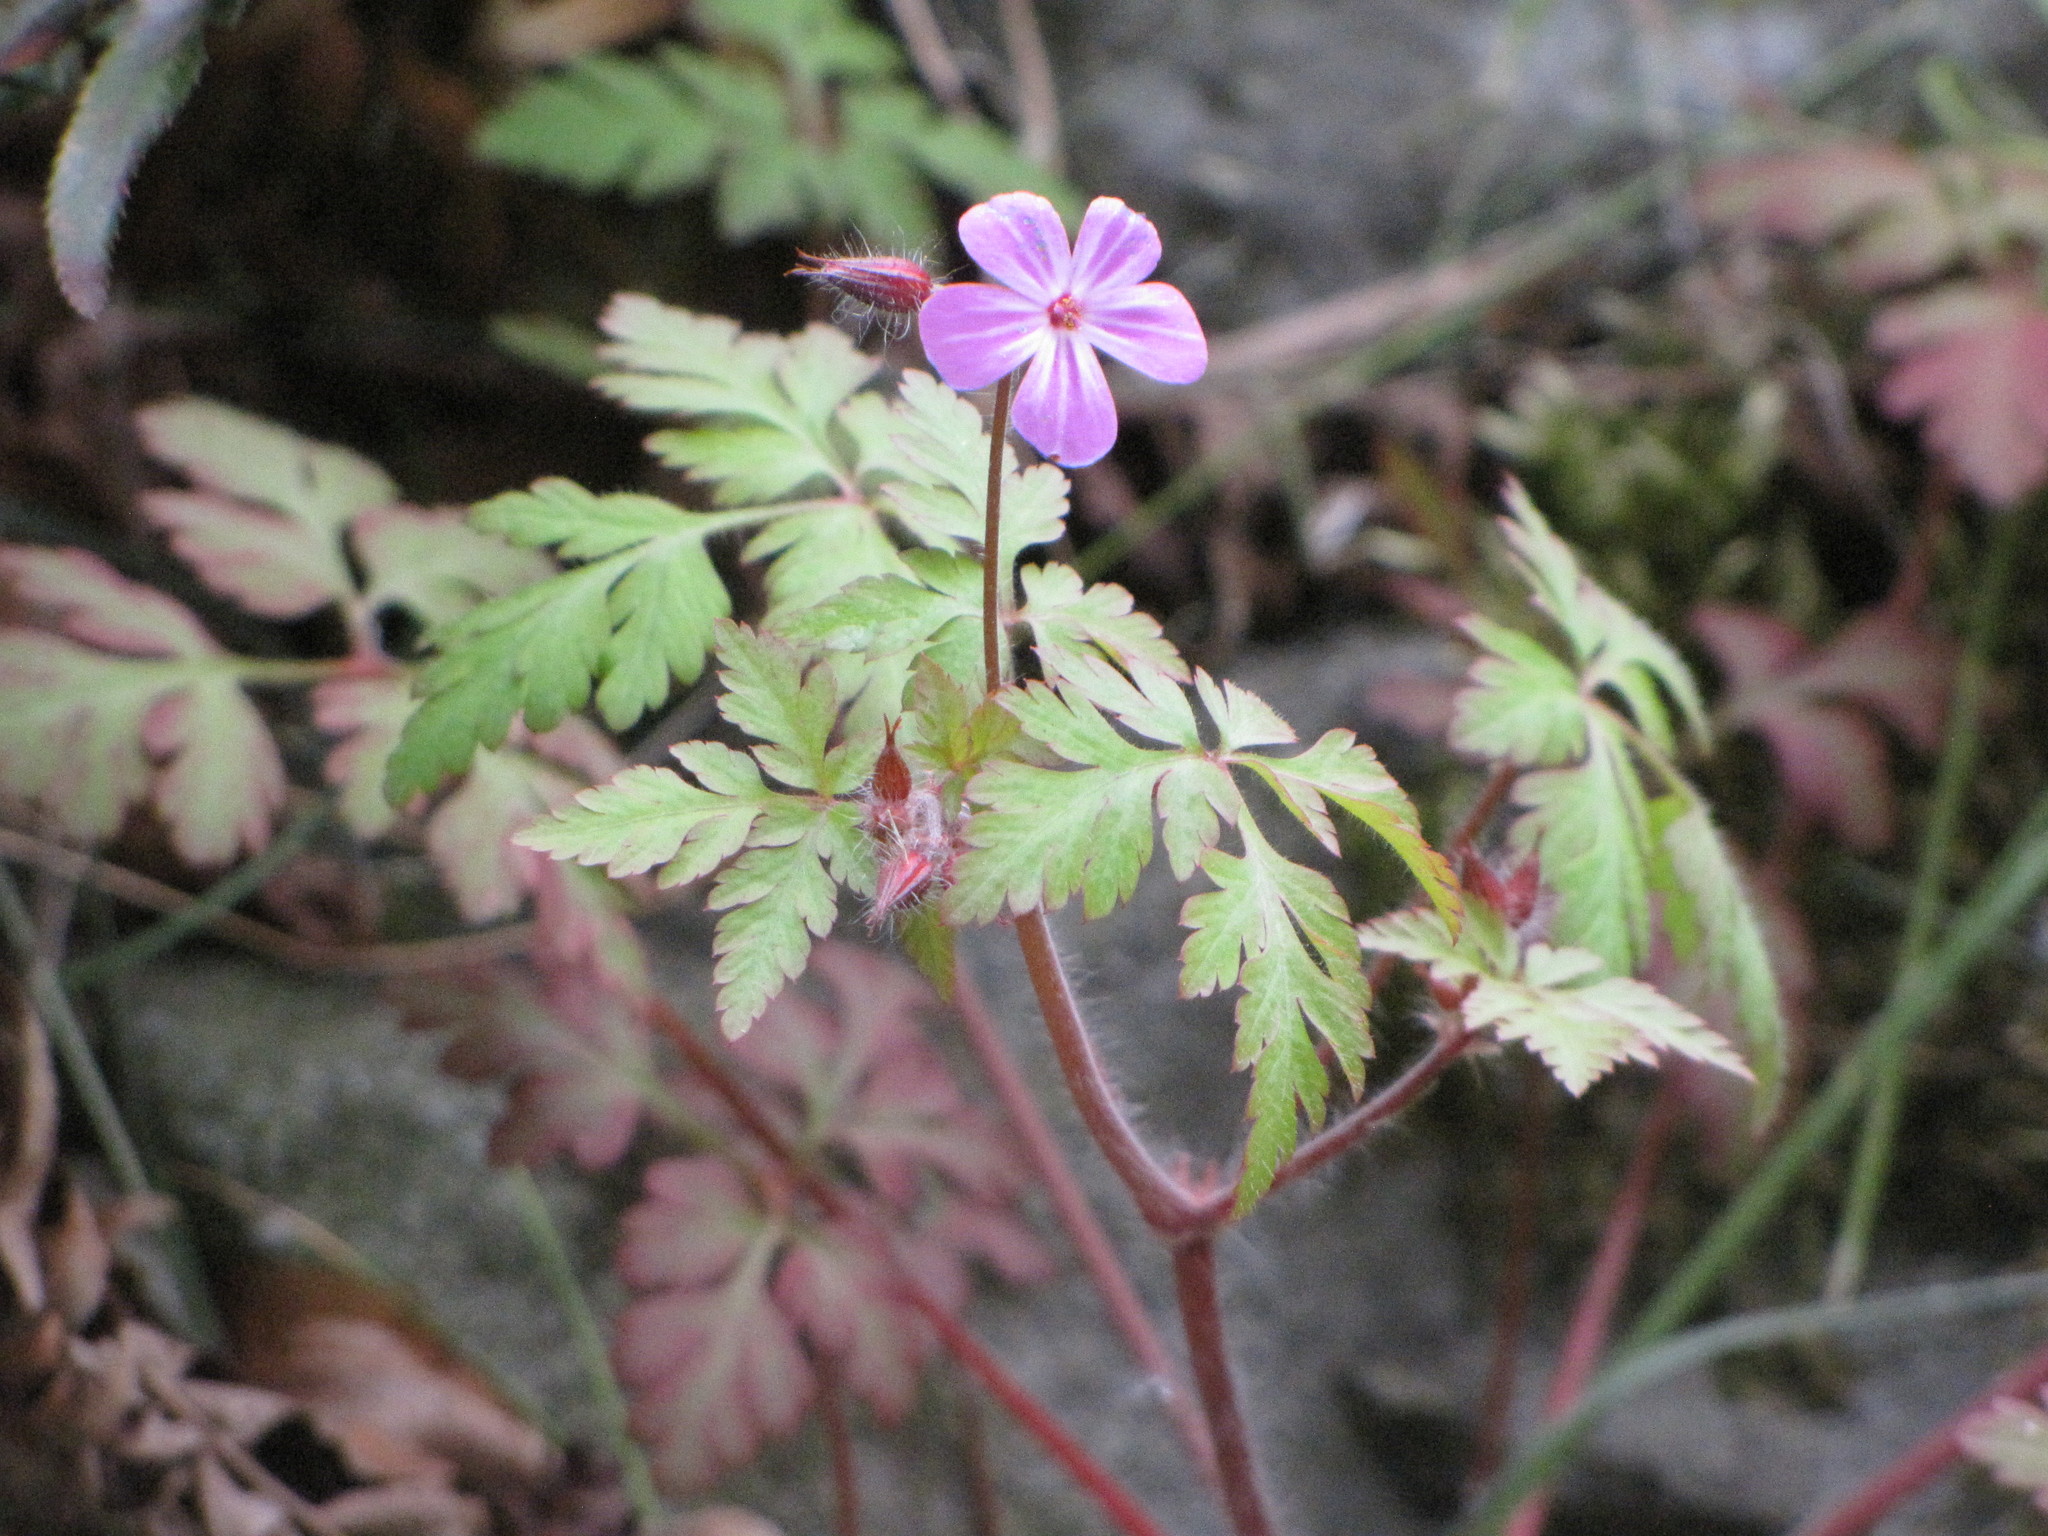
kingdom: Plantae
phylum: Tracheophyta
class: Magnoliopsida
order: Geraniales
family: Geraniaceae
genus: Geranium
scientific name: Geranium robertianum
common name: Herb-robert
